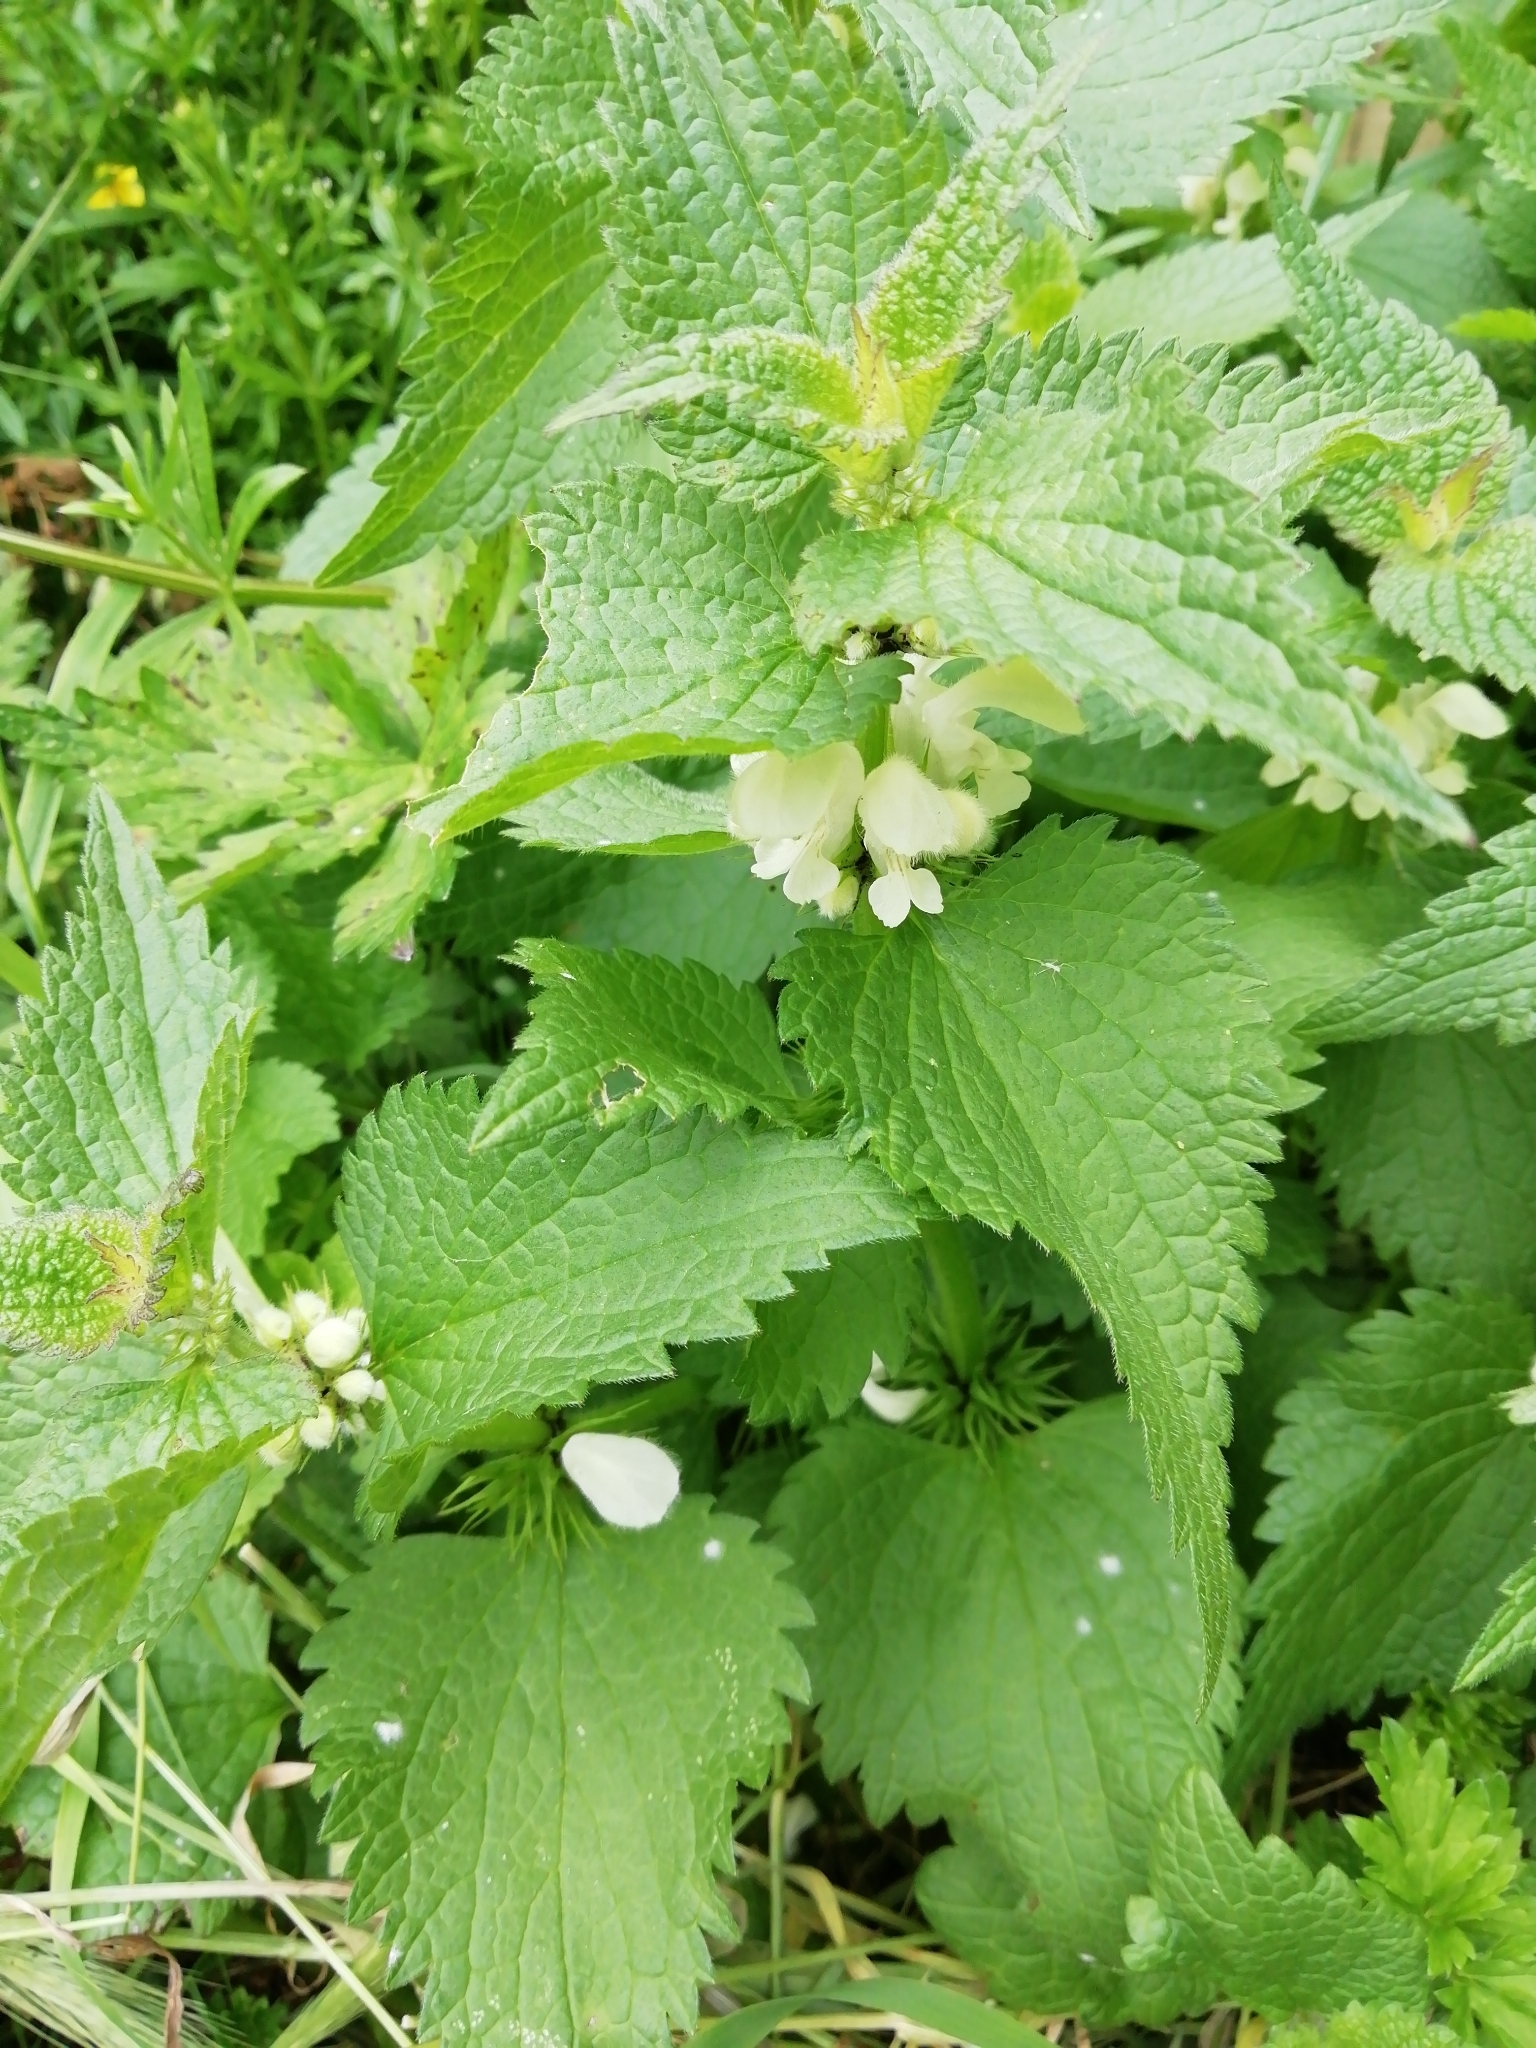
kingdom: Plantae
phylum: Tracheophyta
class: Magnoliopsida
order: Lamiales
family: Lamiaceae
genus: Lamium
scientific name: Lamium album
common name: White dead-nettle
